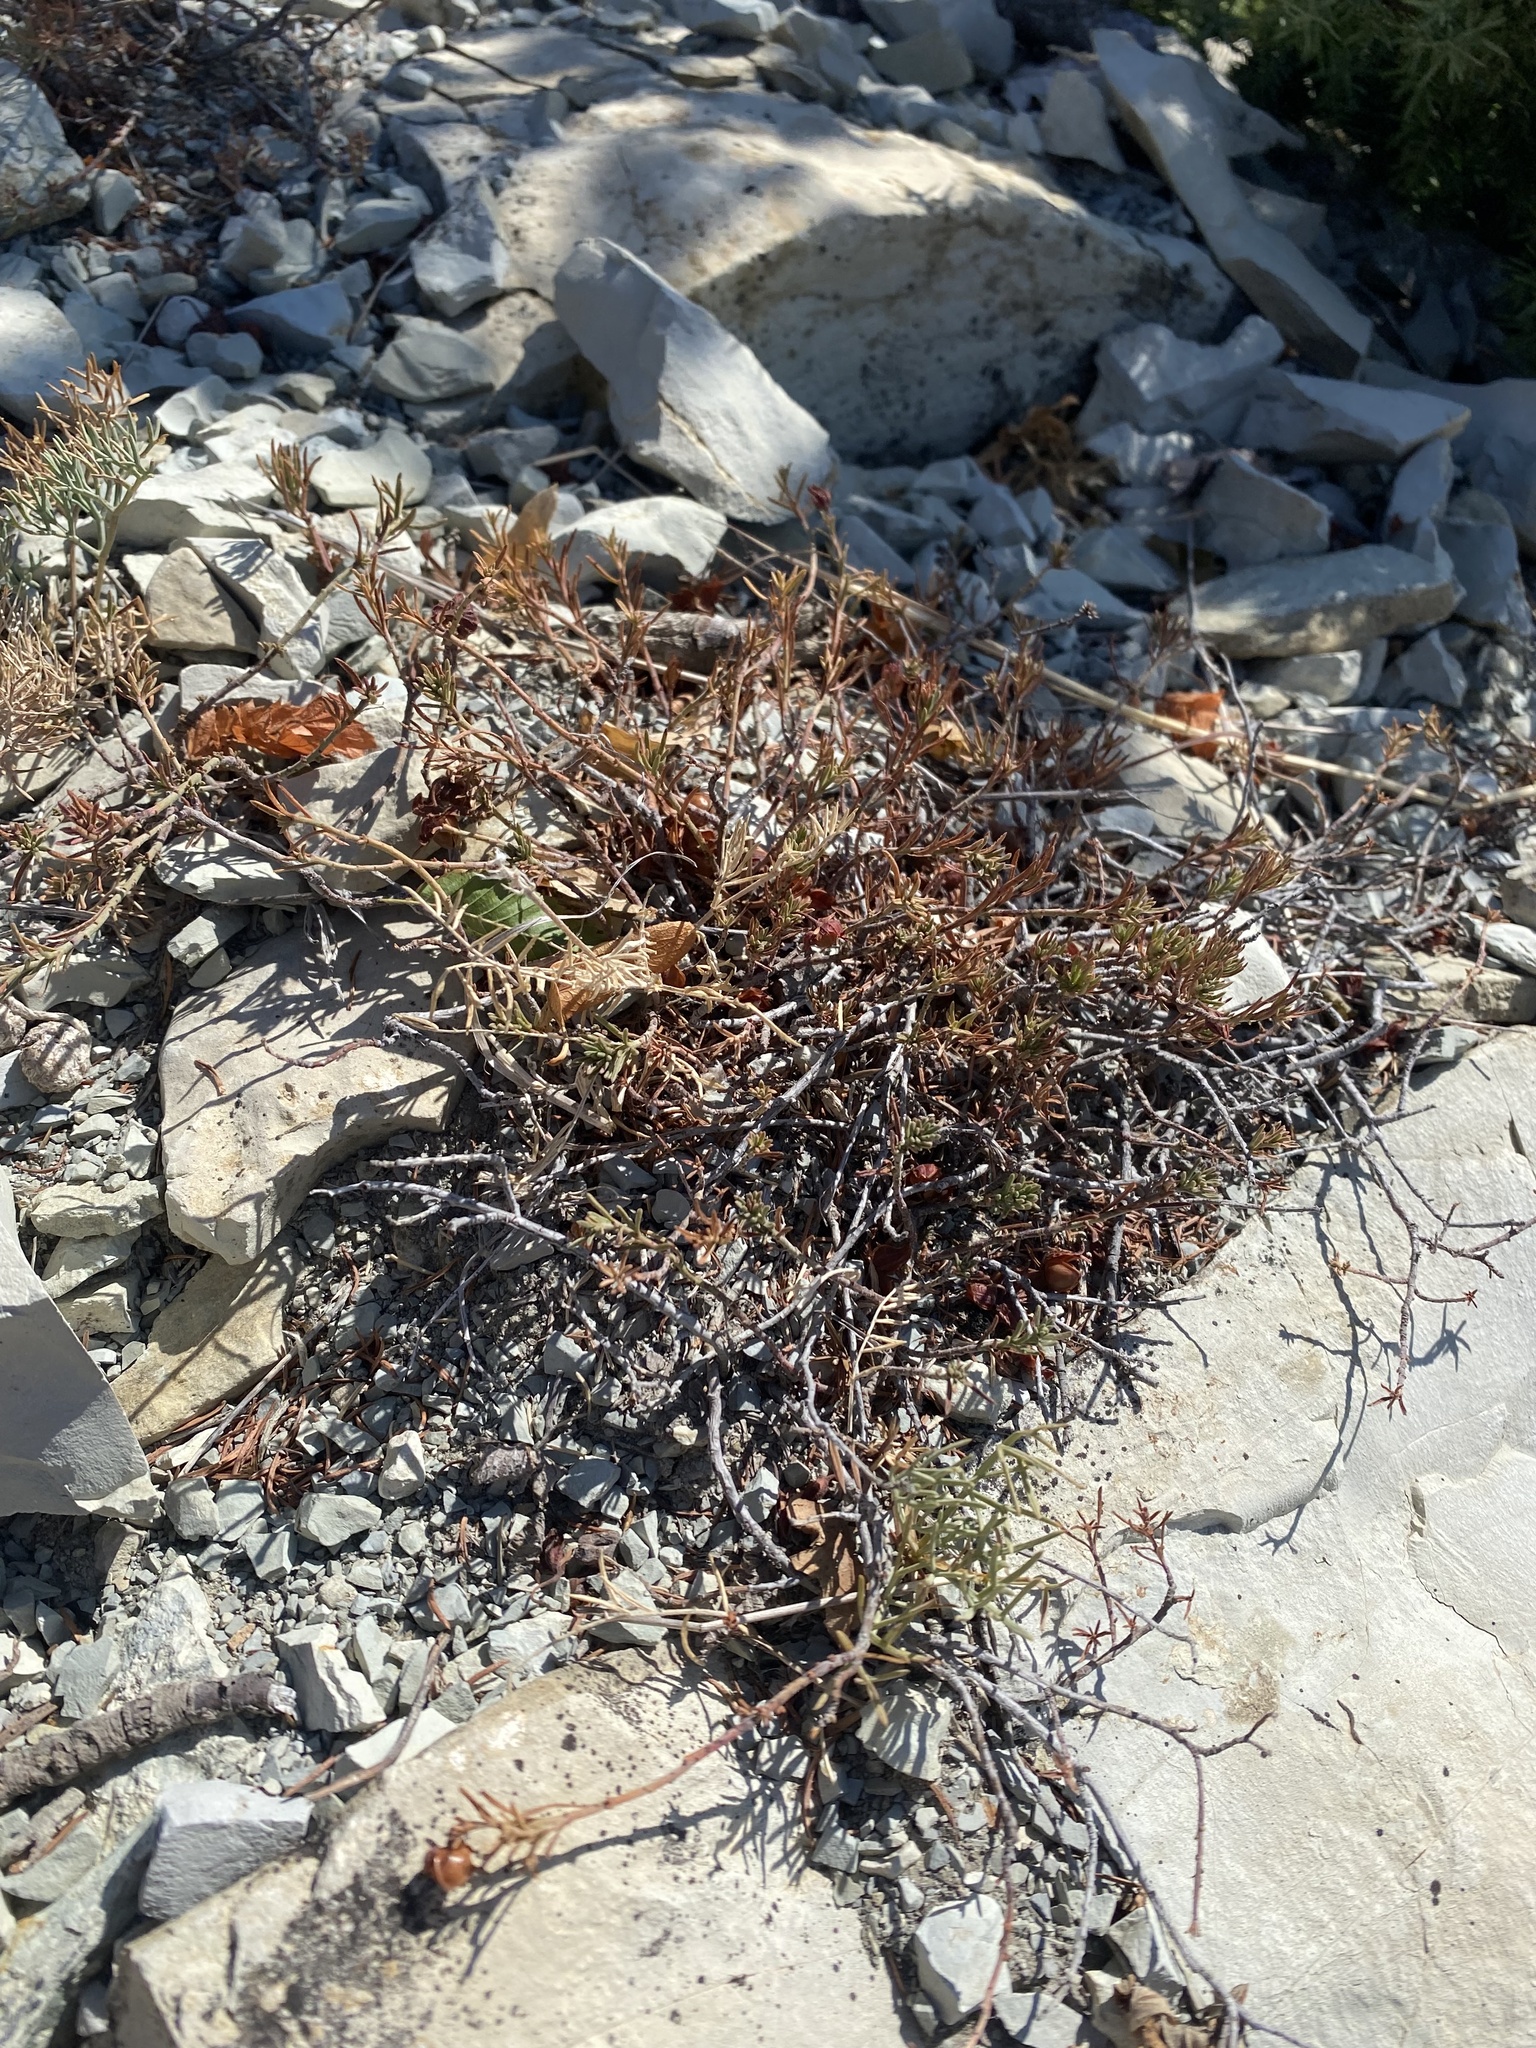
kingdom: Plantae
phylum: Tracheophyta
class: Magnoliopsida
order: Malvales
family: Cistaceae
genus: Fumana
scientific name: Fumana procumbens
